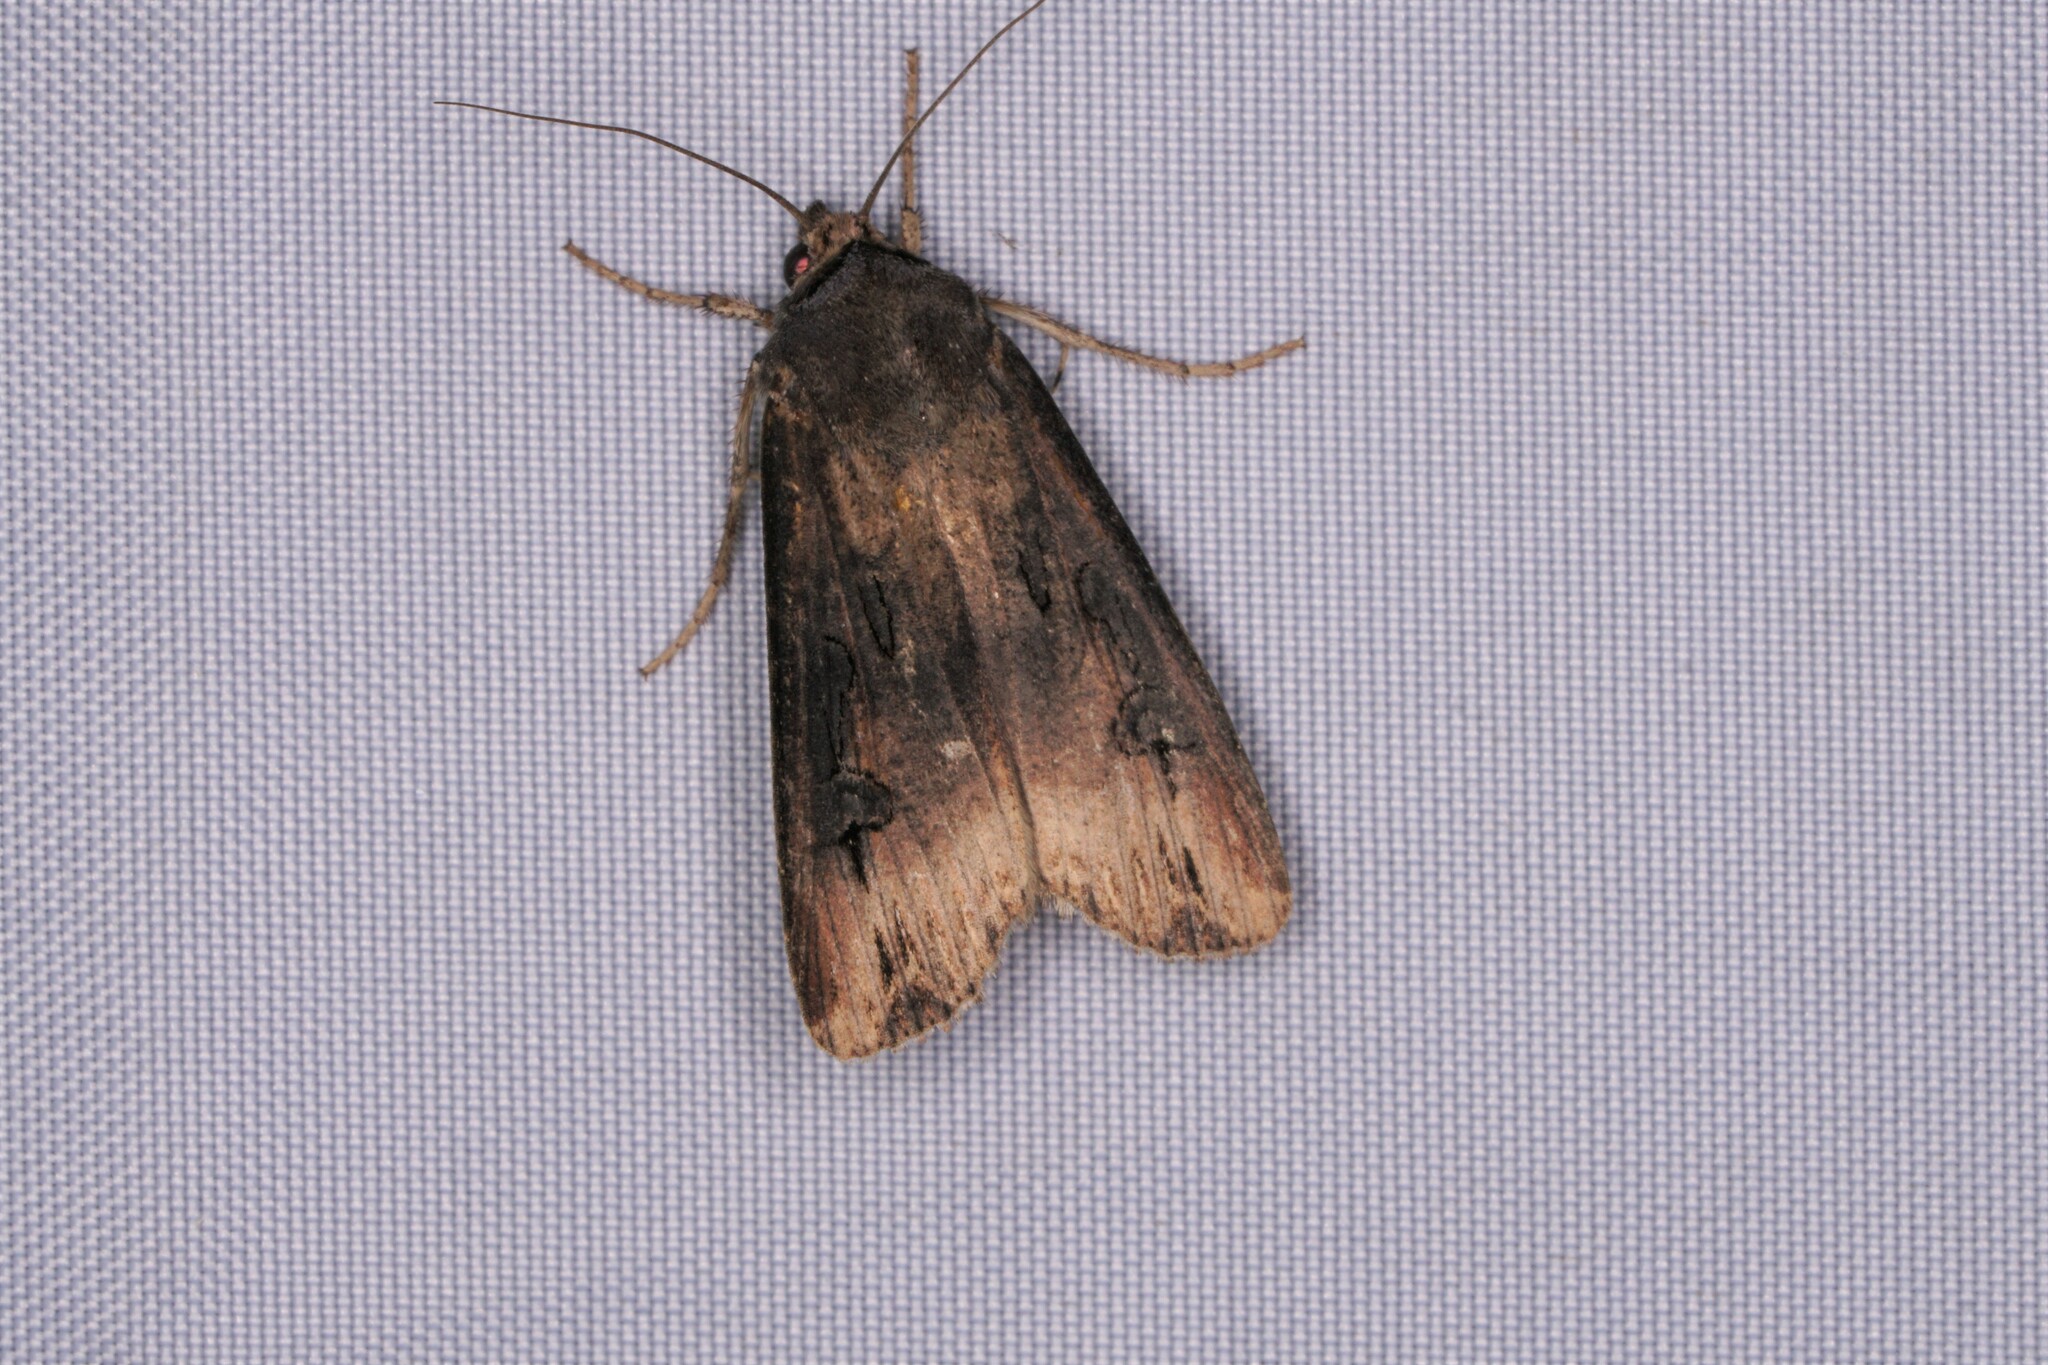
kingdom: Animalia
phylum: Arthropoda
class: Insecta
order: Lepidoptera
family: Noctuidae
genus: Agrotis
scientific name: Agrotis ipsilon
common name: Dark sword-grass
